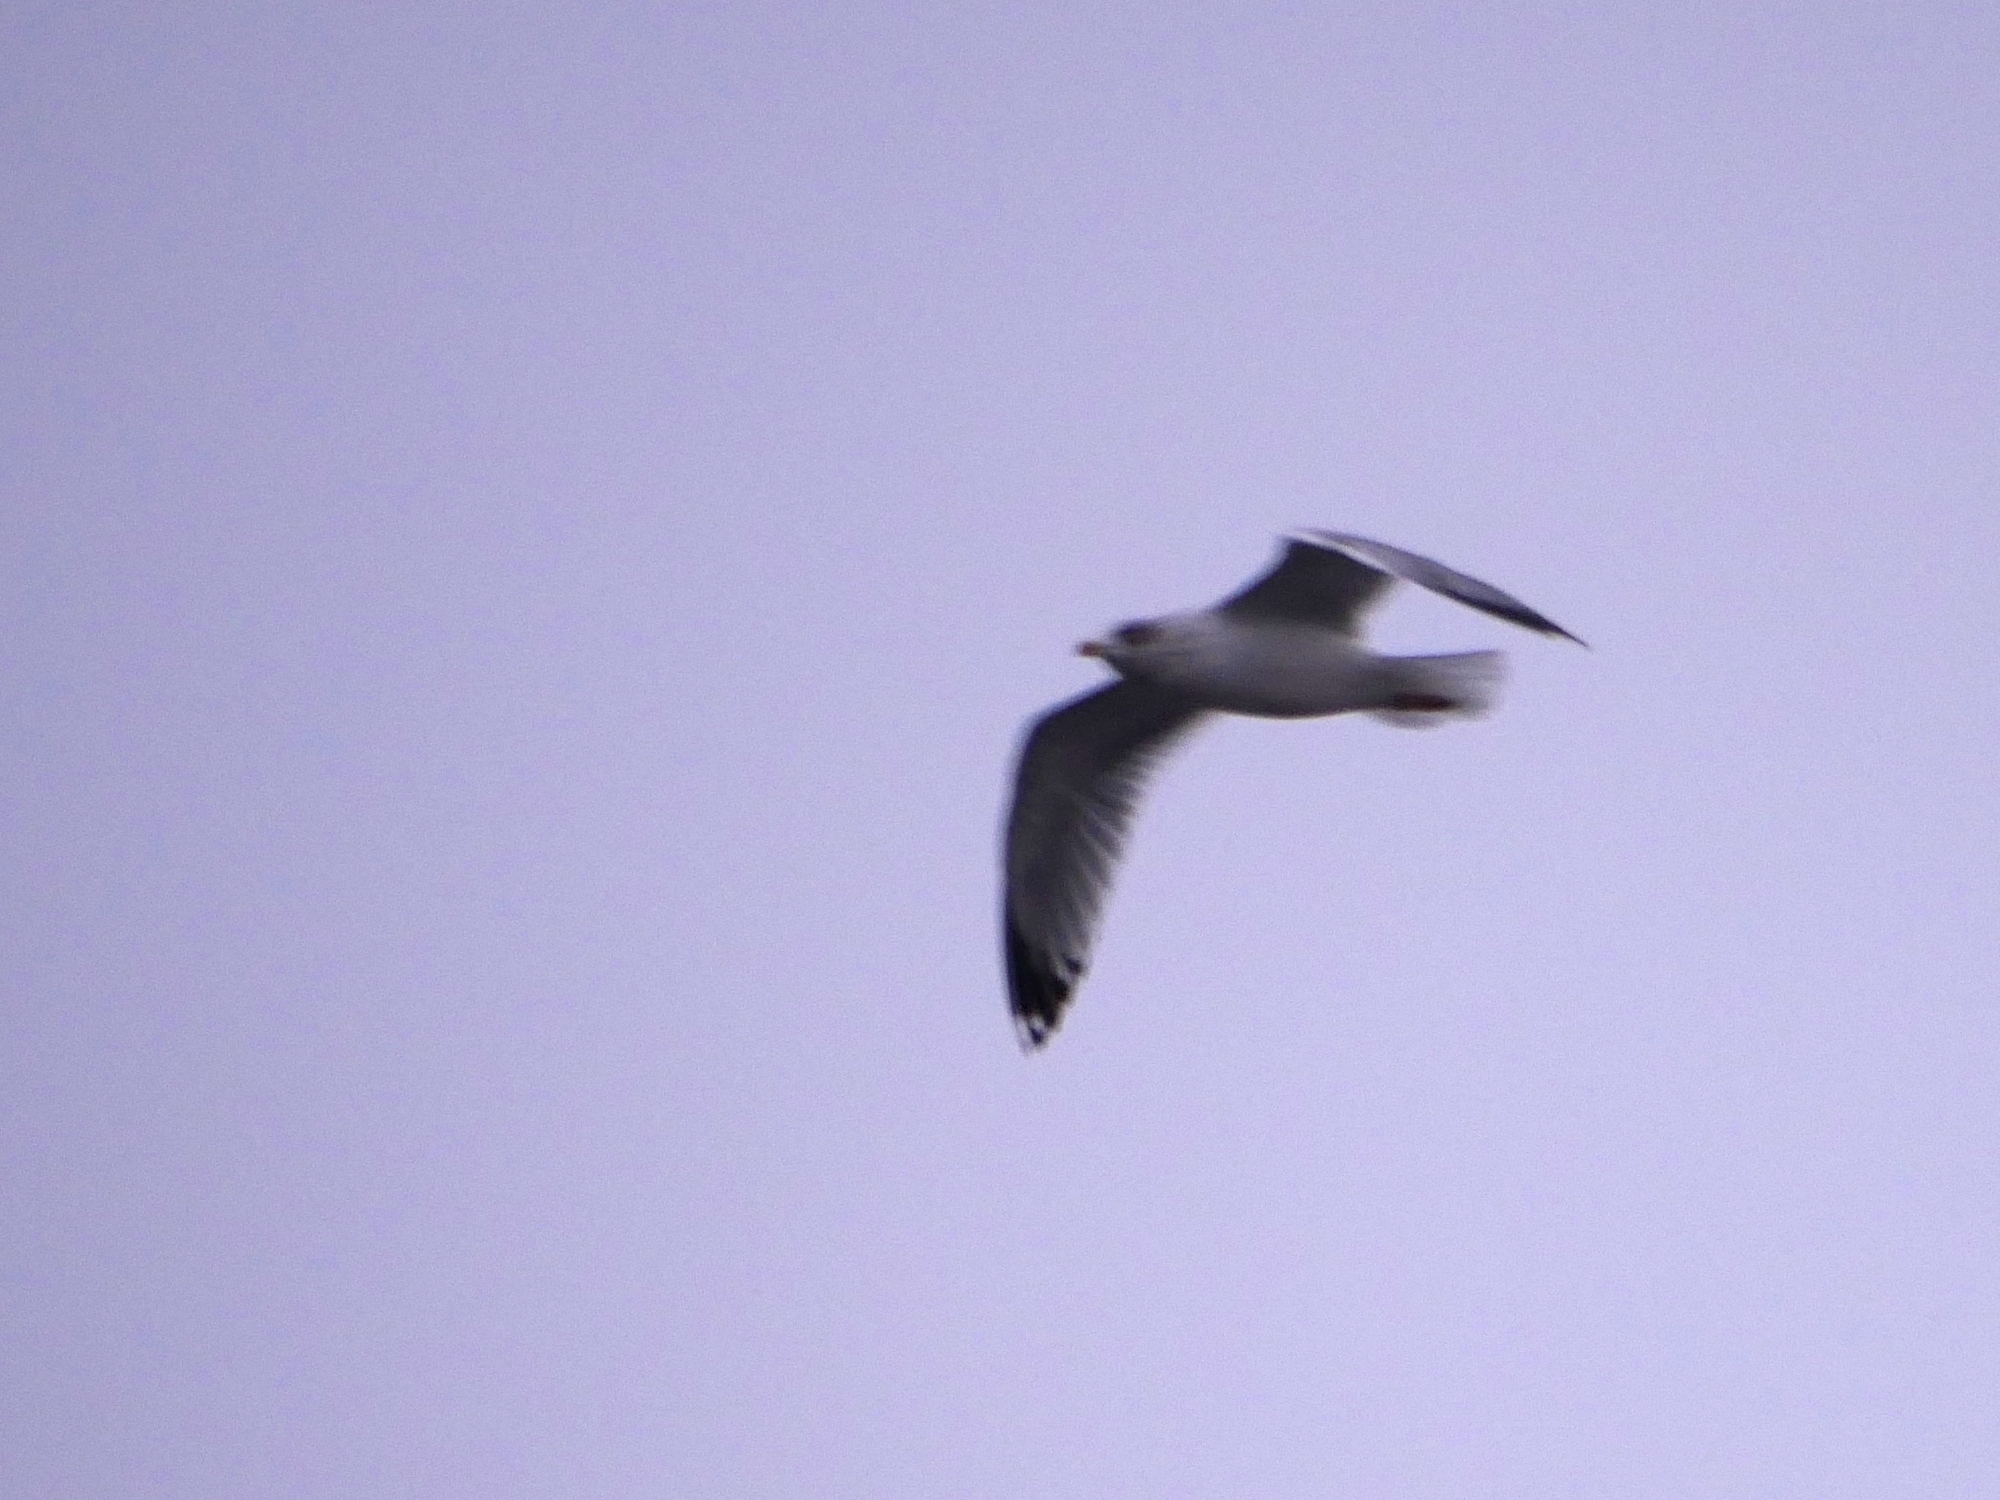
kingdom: Animalia
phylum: Chordata
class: Aves
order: Charadriiformes
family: Laridae
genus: Larus
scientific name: Larus argentatus
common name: Herring gull
